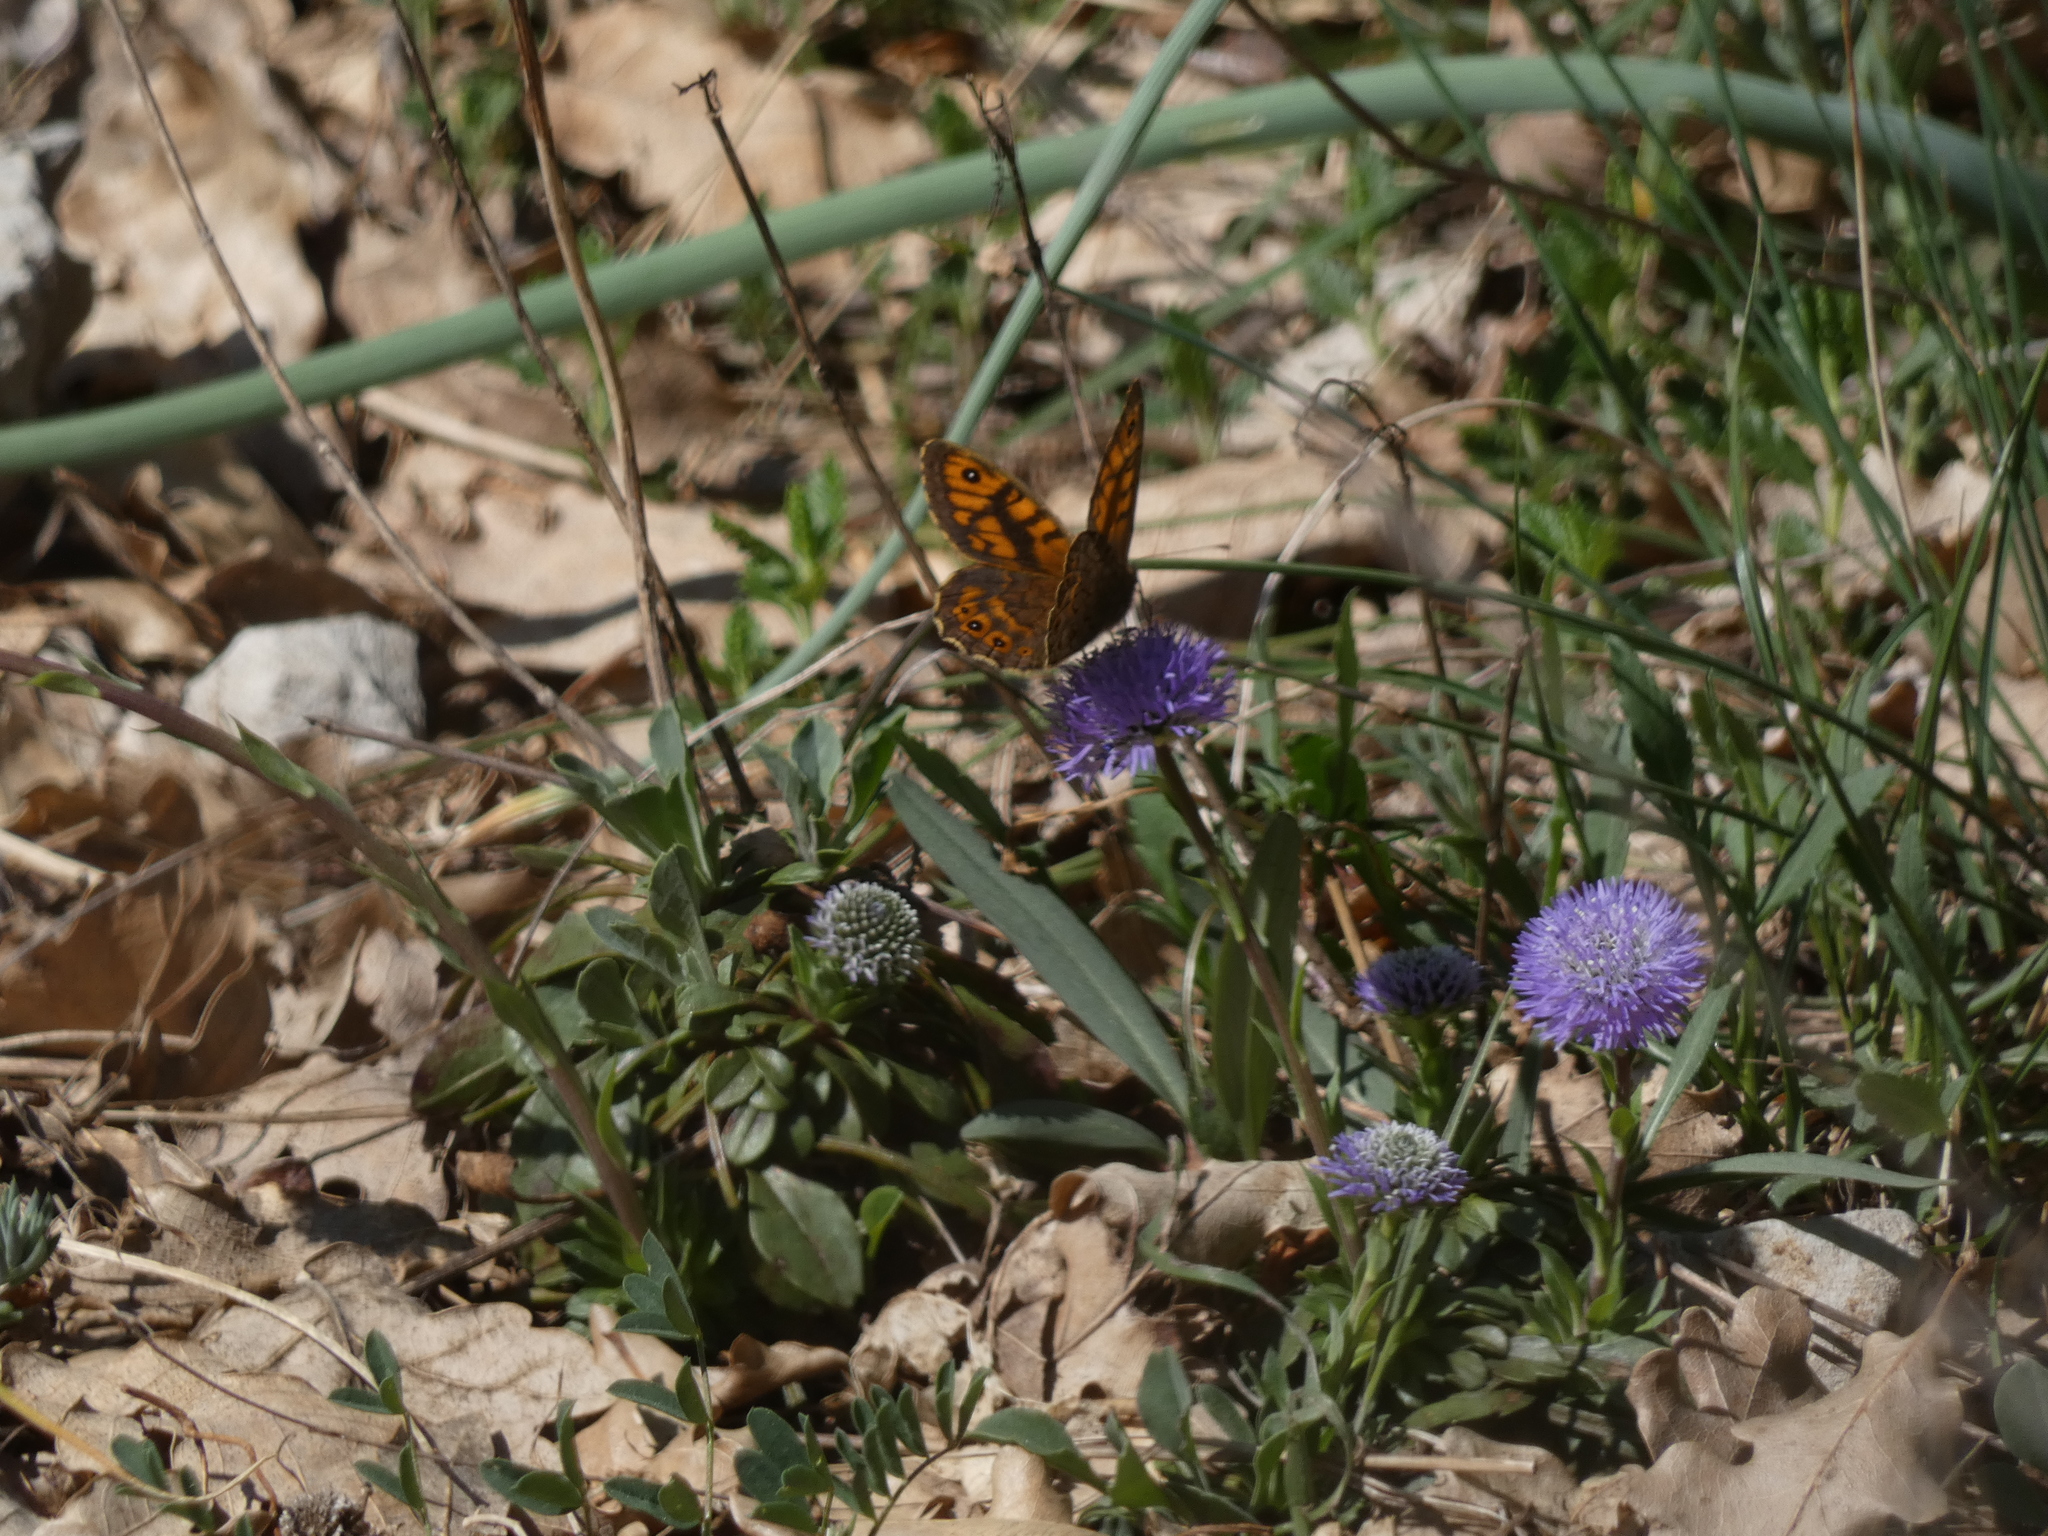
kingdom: Animalia
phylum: Arthropoda
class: Insecta
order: Lepidoptera
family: Nymphalidae
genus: Pararge
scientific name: Pararge Lasiommata megera
